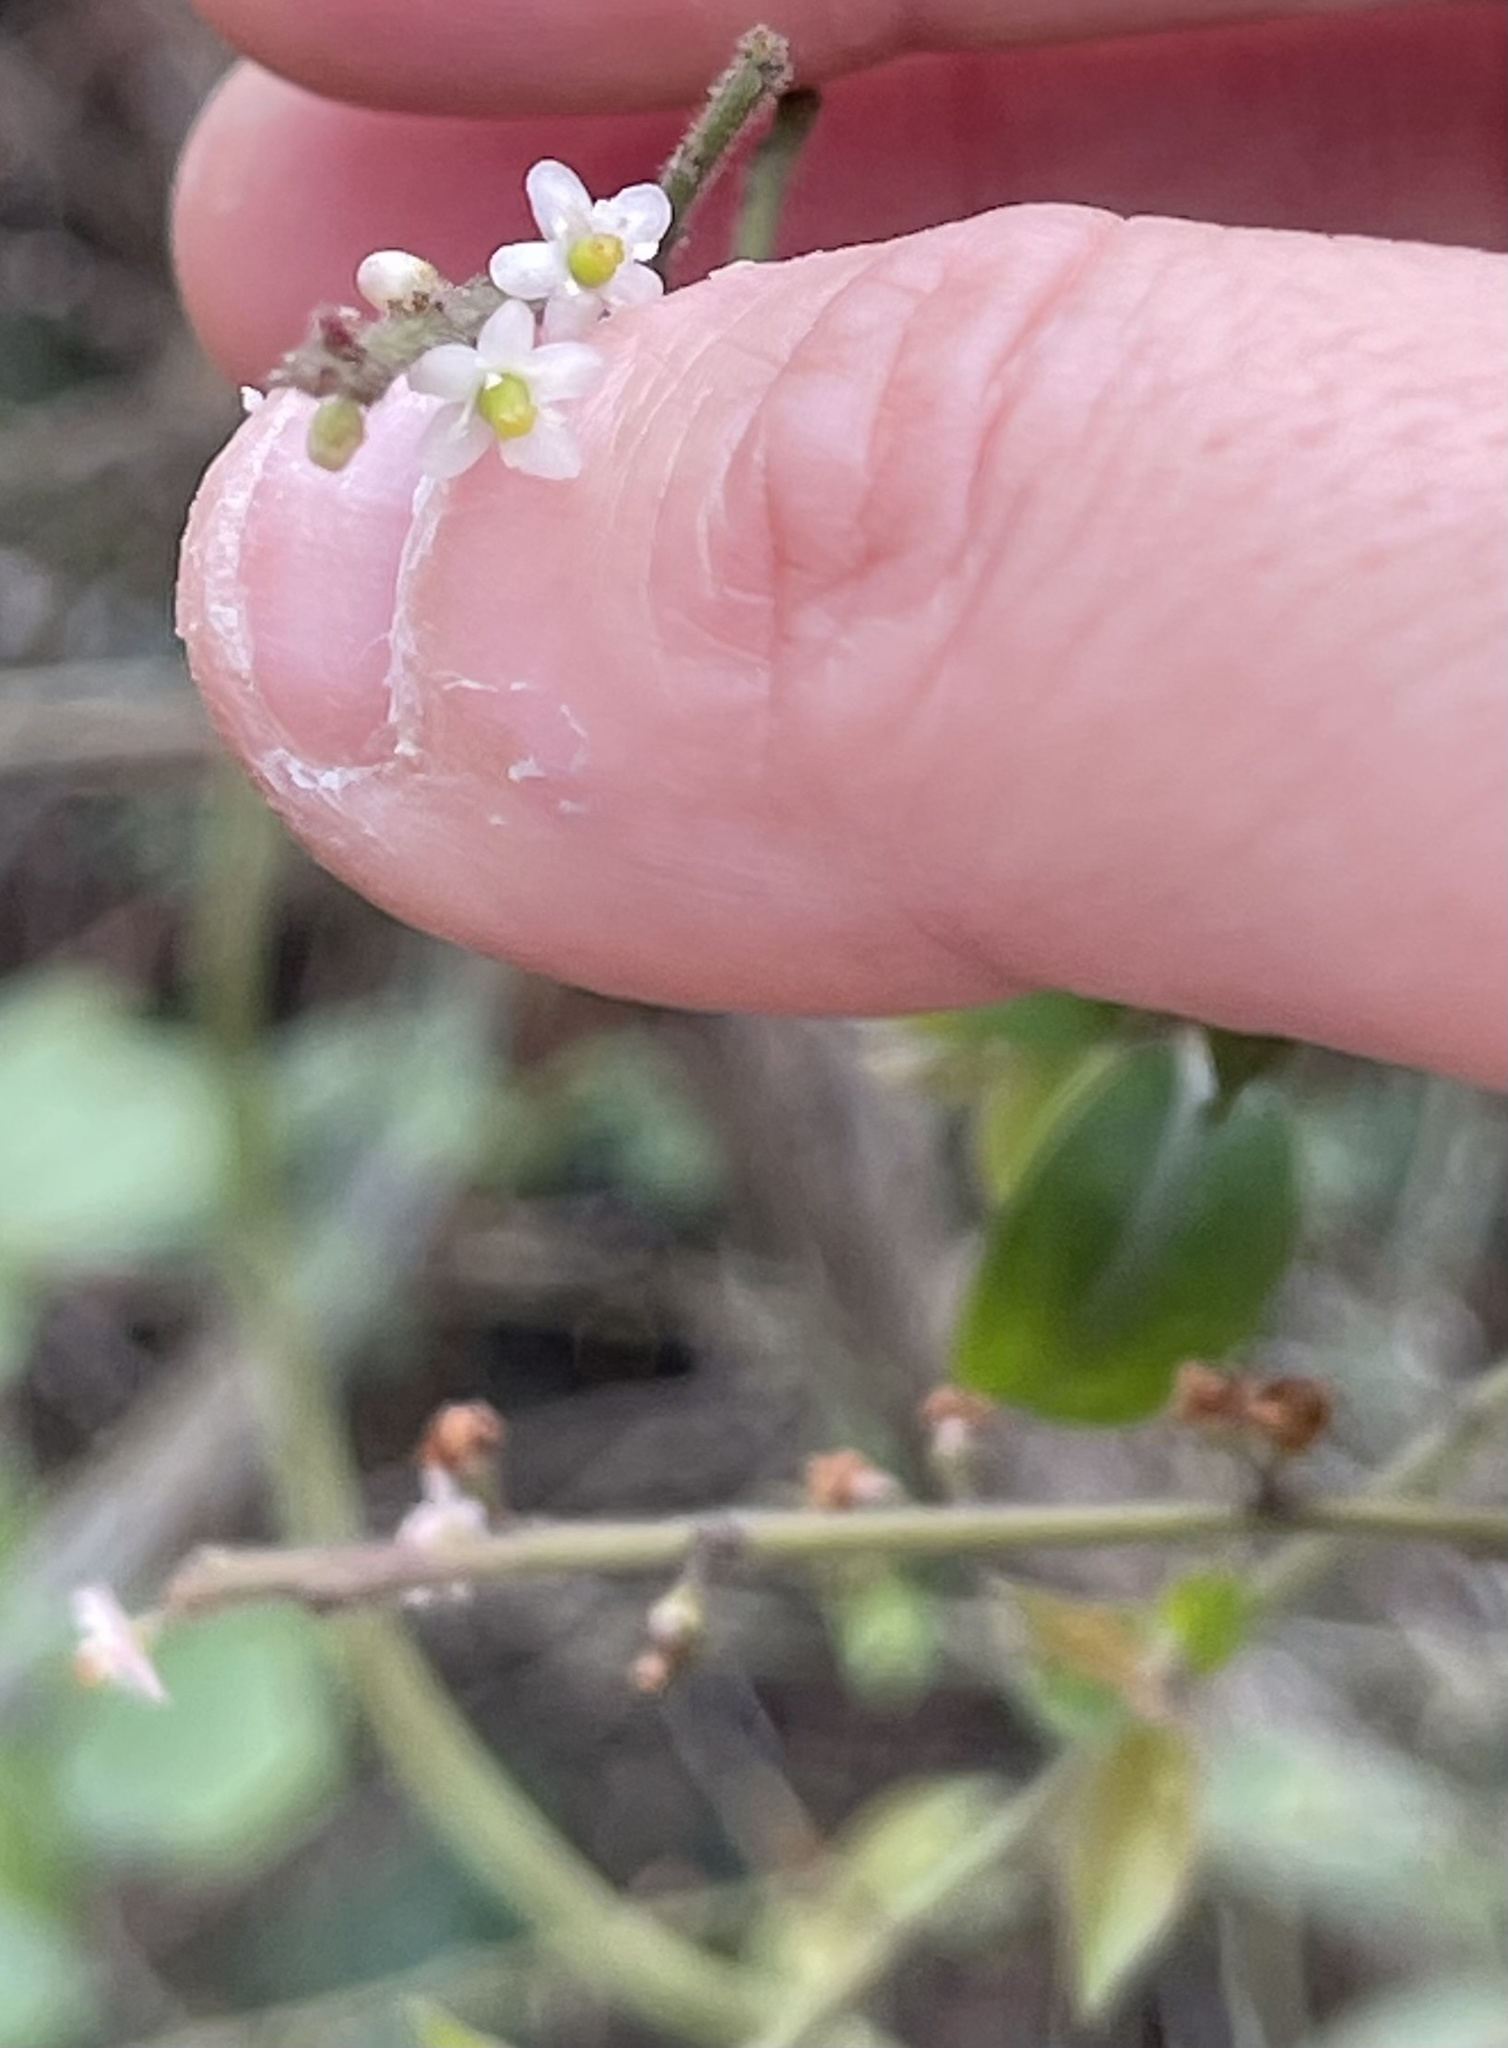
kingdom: Plantae
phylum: Tracheophyta
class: Magnoliopsida
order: Aquifoliales
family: Aquifoliaceae
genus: Ilex
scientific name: Ilex pubescens
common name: Pubescent holly
